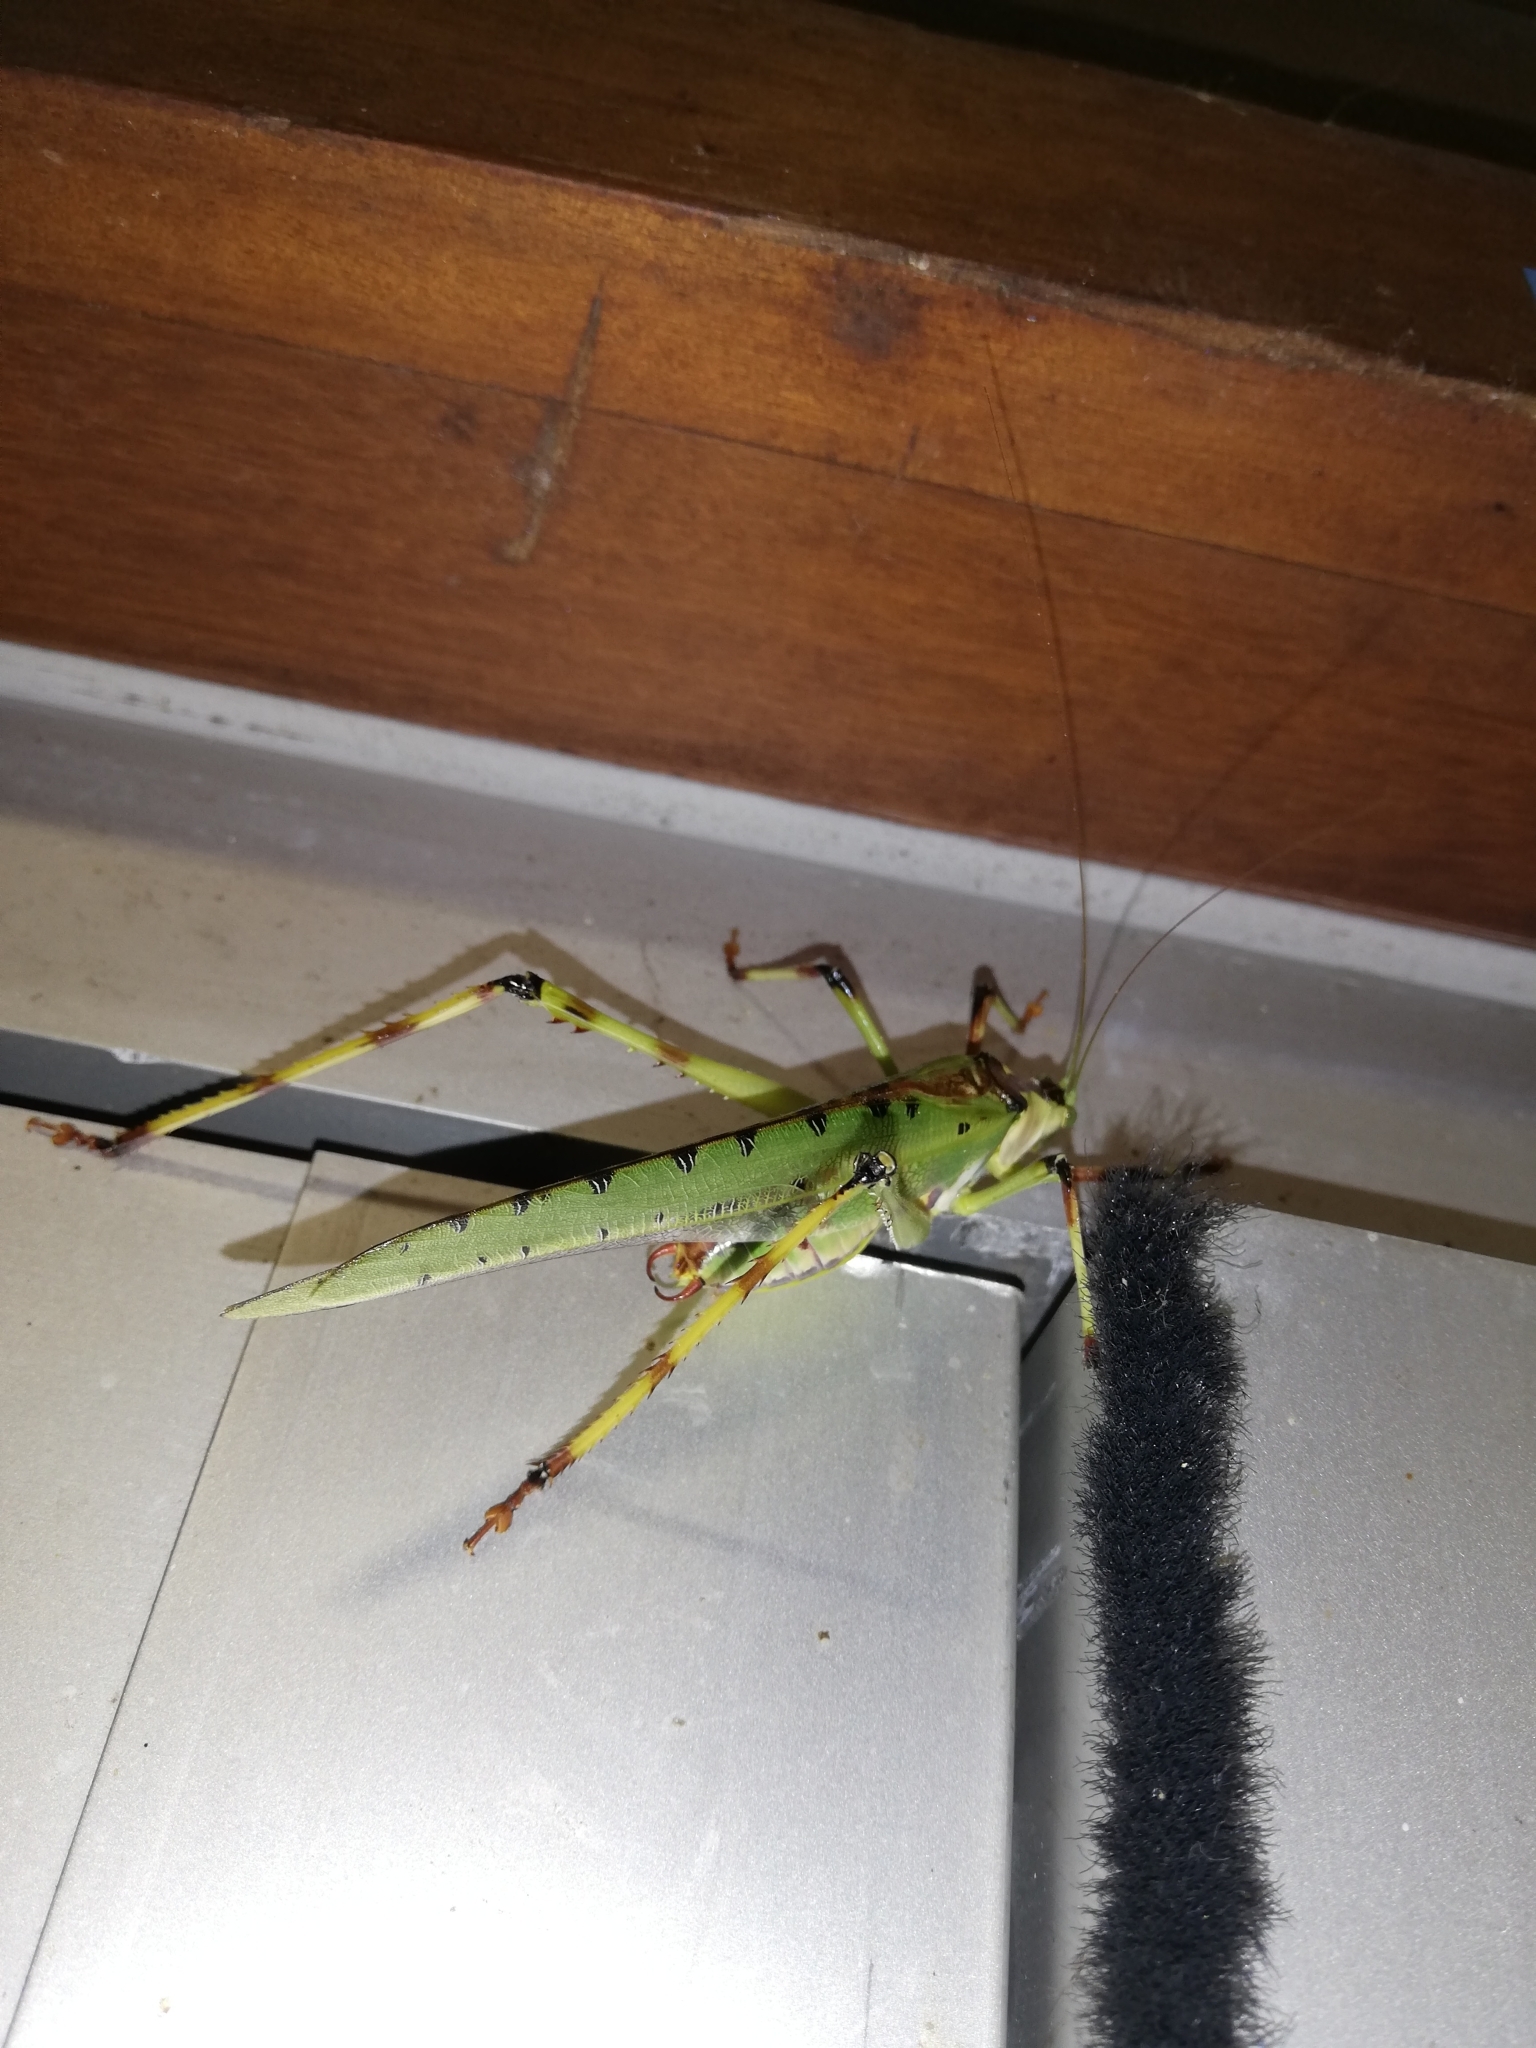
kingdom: Animalia
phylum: Arthropoda
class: Insecta
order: Orthoptera
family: Tettigoniidae
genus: Ephippitytha
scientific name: Ephippitytha trigintiduoguttata
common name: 32-spotted katydid
